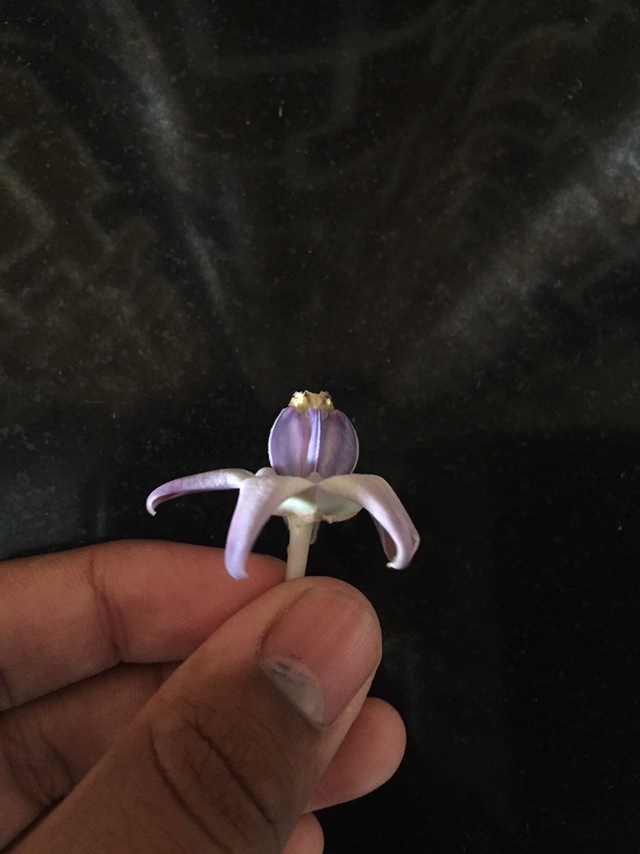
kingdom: Plantae
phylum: Tracheophyta
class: Magnoliopsida
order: Gentianales
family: Apocynaceae
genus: Calotropis
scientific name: Calotropis gigantea
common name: Crown flower
